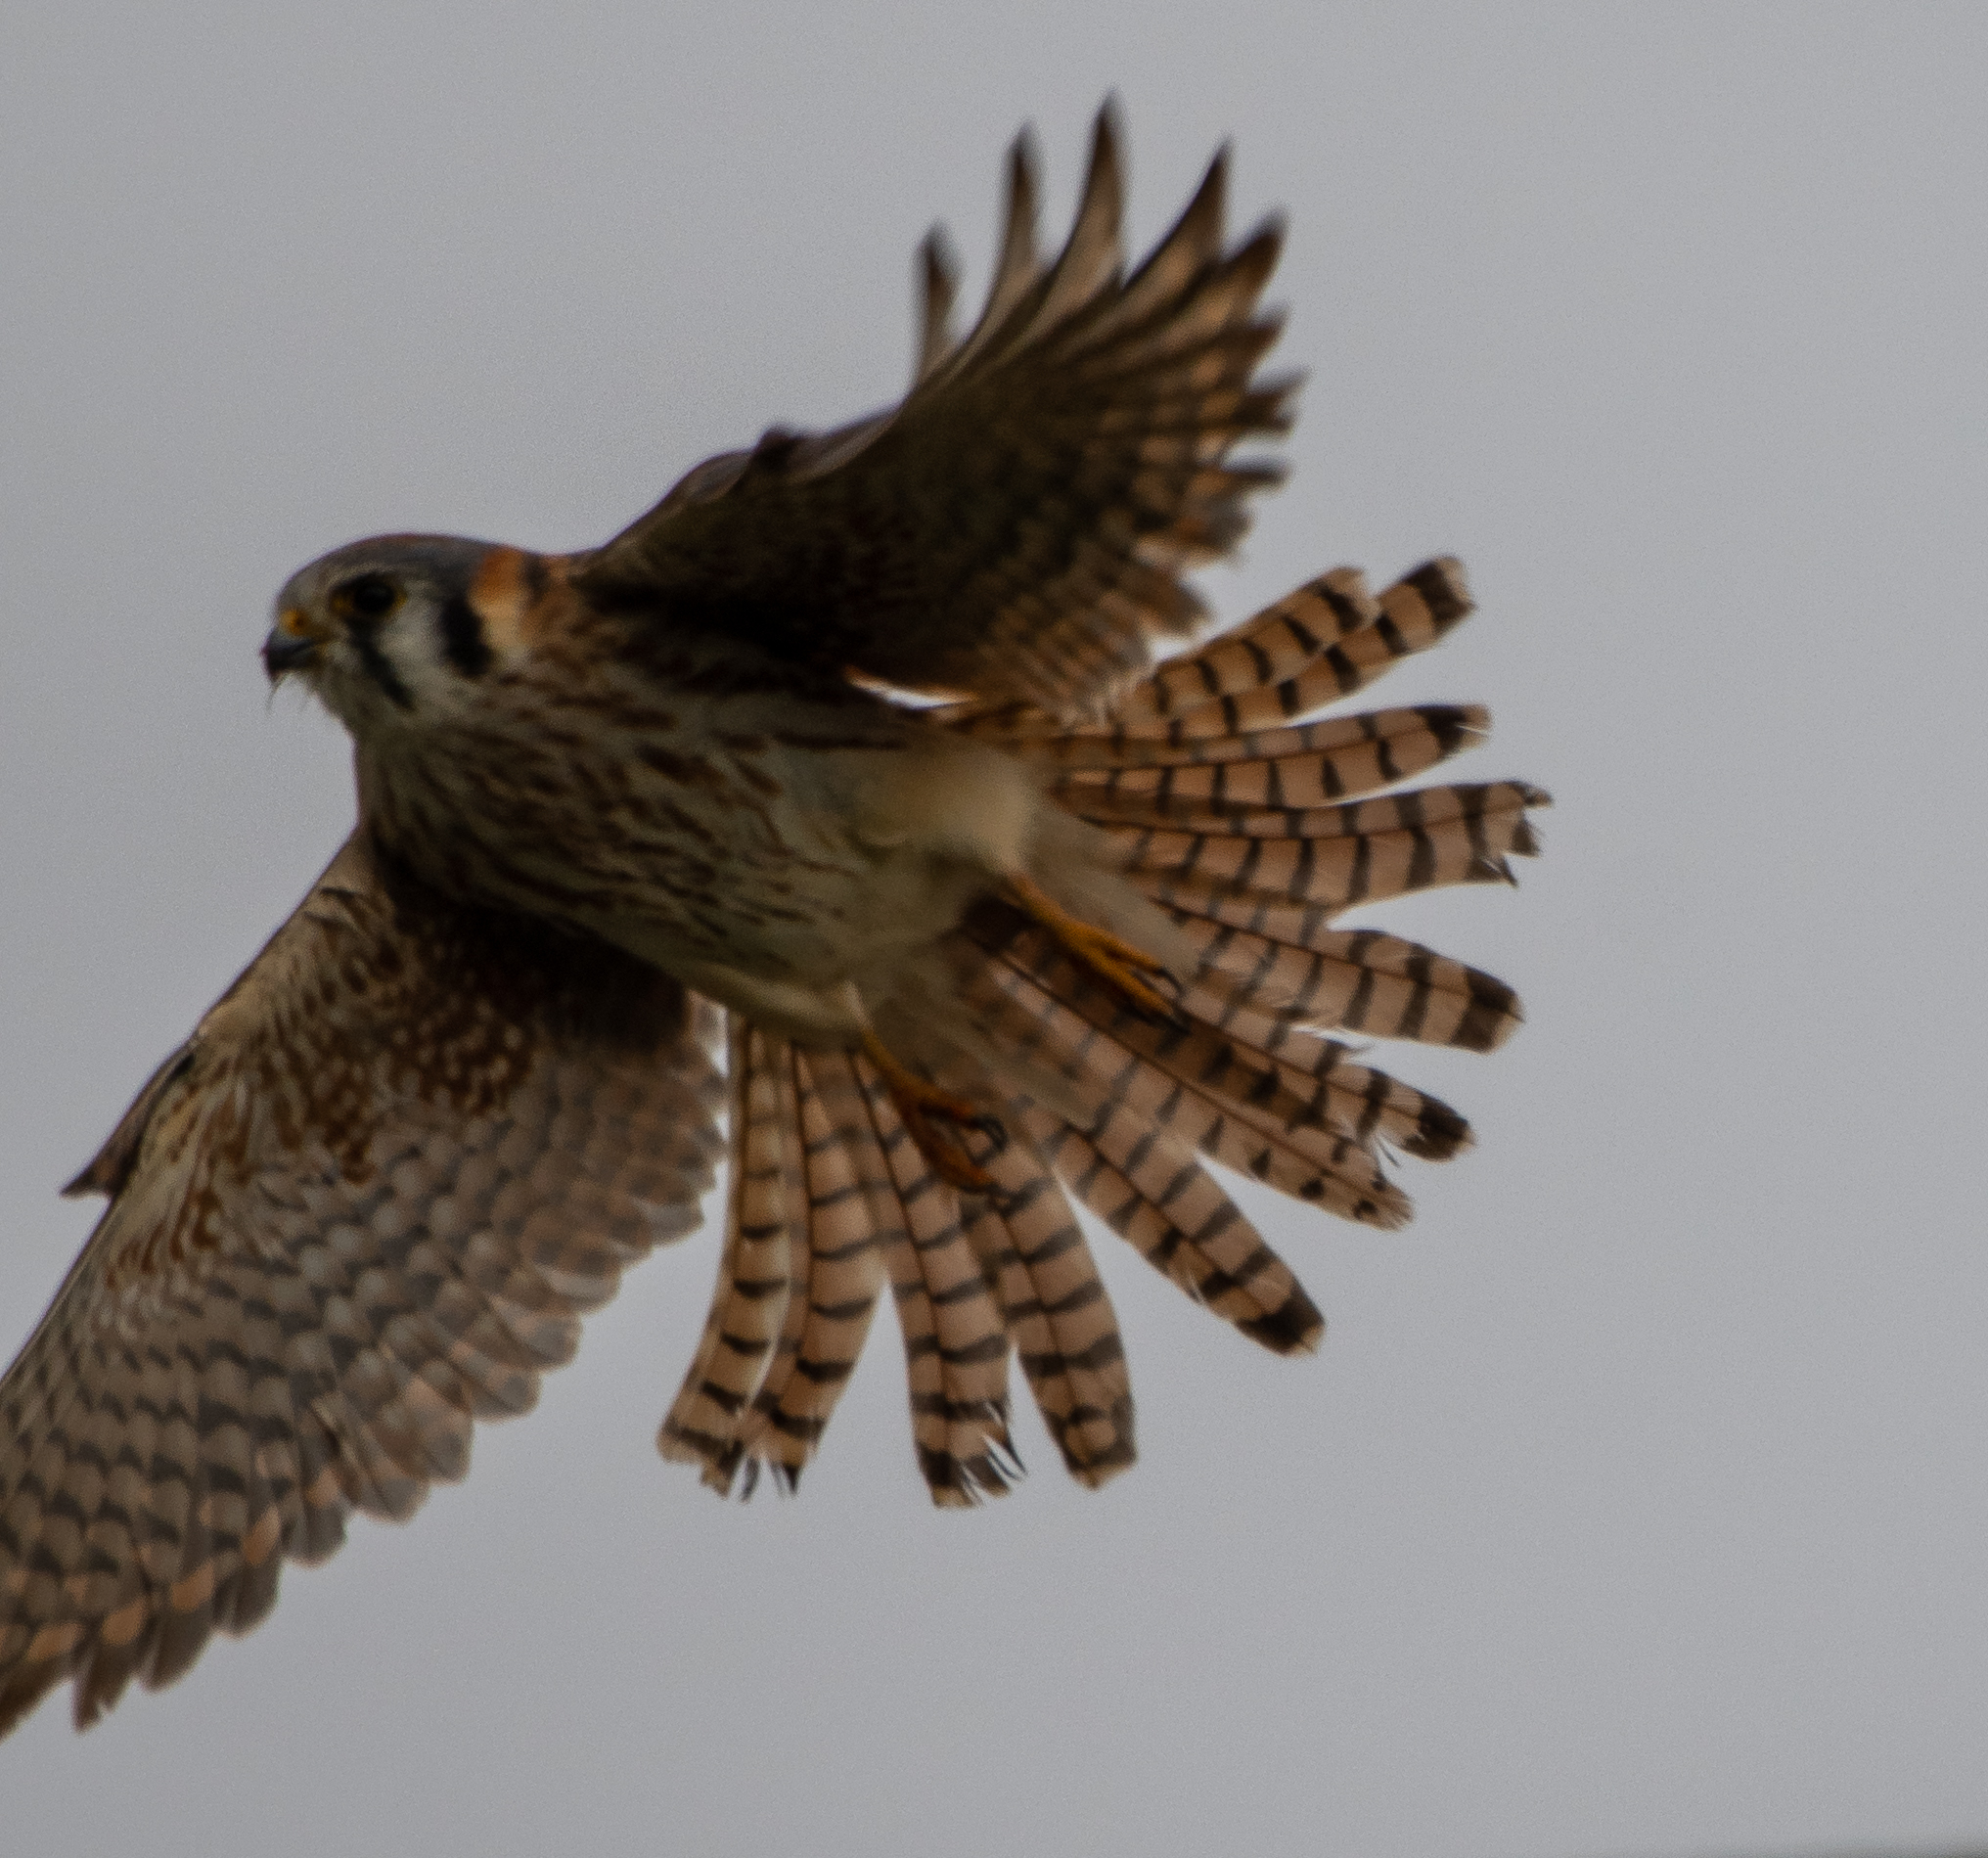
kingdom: Animalia
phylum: Chordata
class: Aves
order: Falconiformes
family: Falconidae
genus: Falco
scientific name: Falco sparverius
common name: American kestrel
